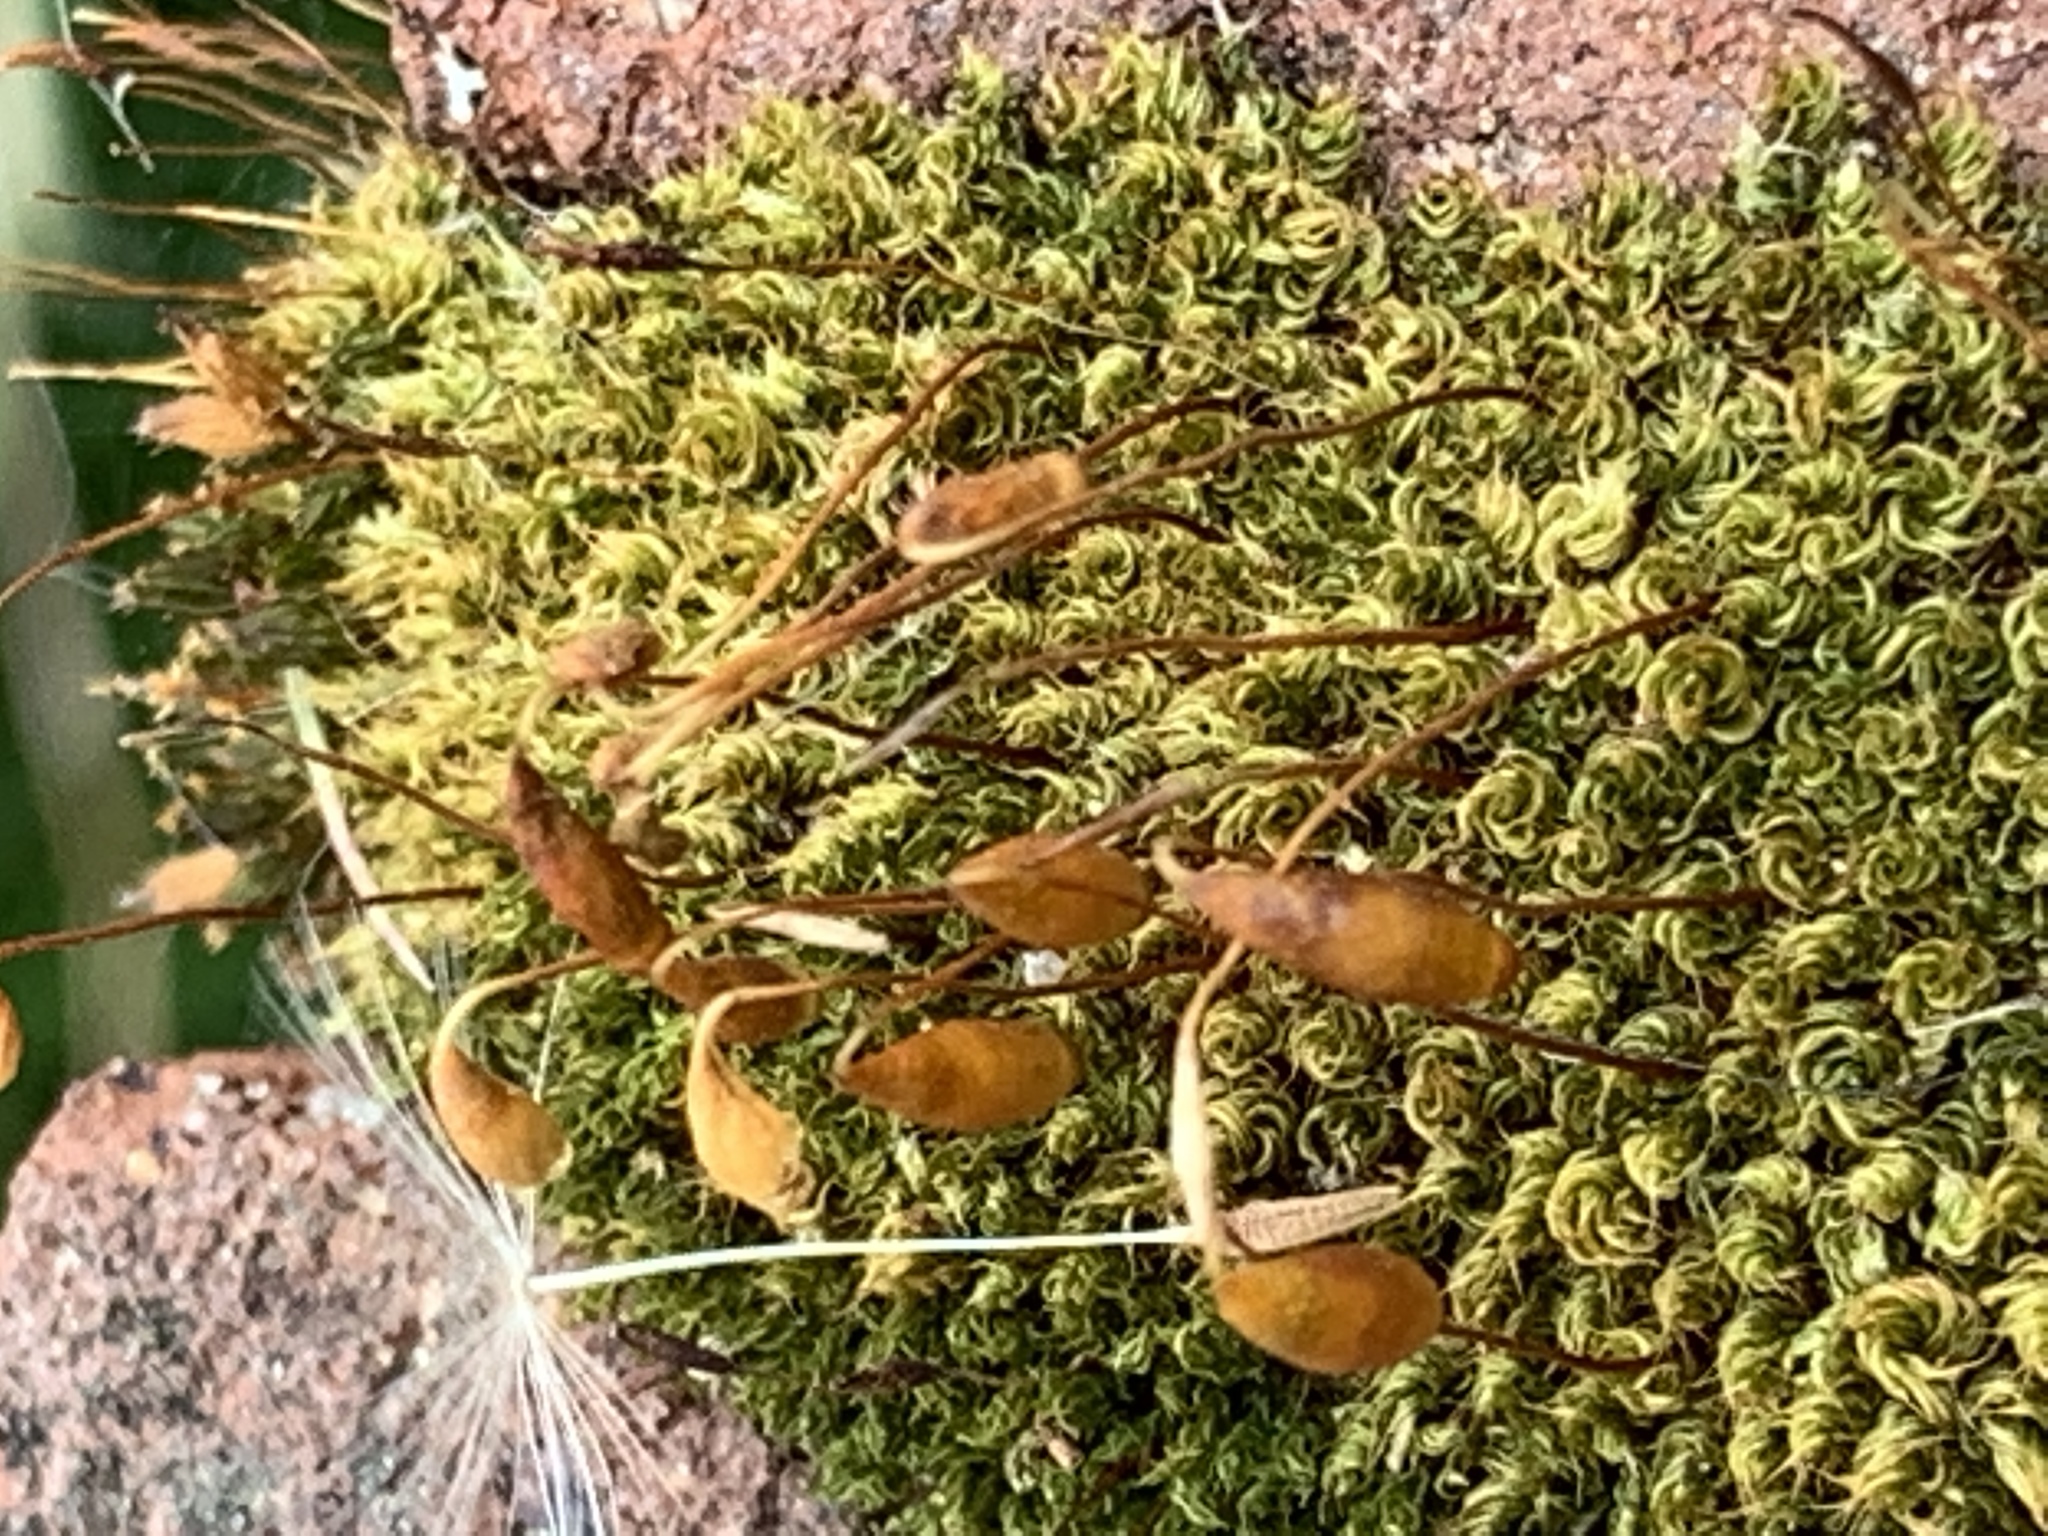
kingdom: Plantae
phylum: Bryophyta
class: Bryopsida
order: Bryales
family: Bryaceae
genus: Rosulabryum
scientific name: Rosulabryum capillare
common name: Capillary thread-moss
